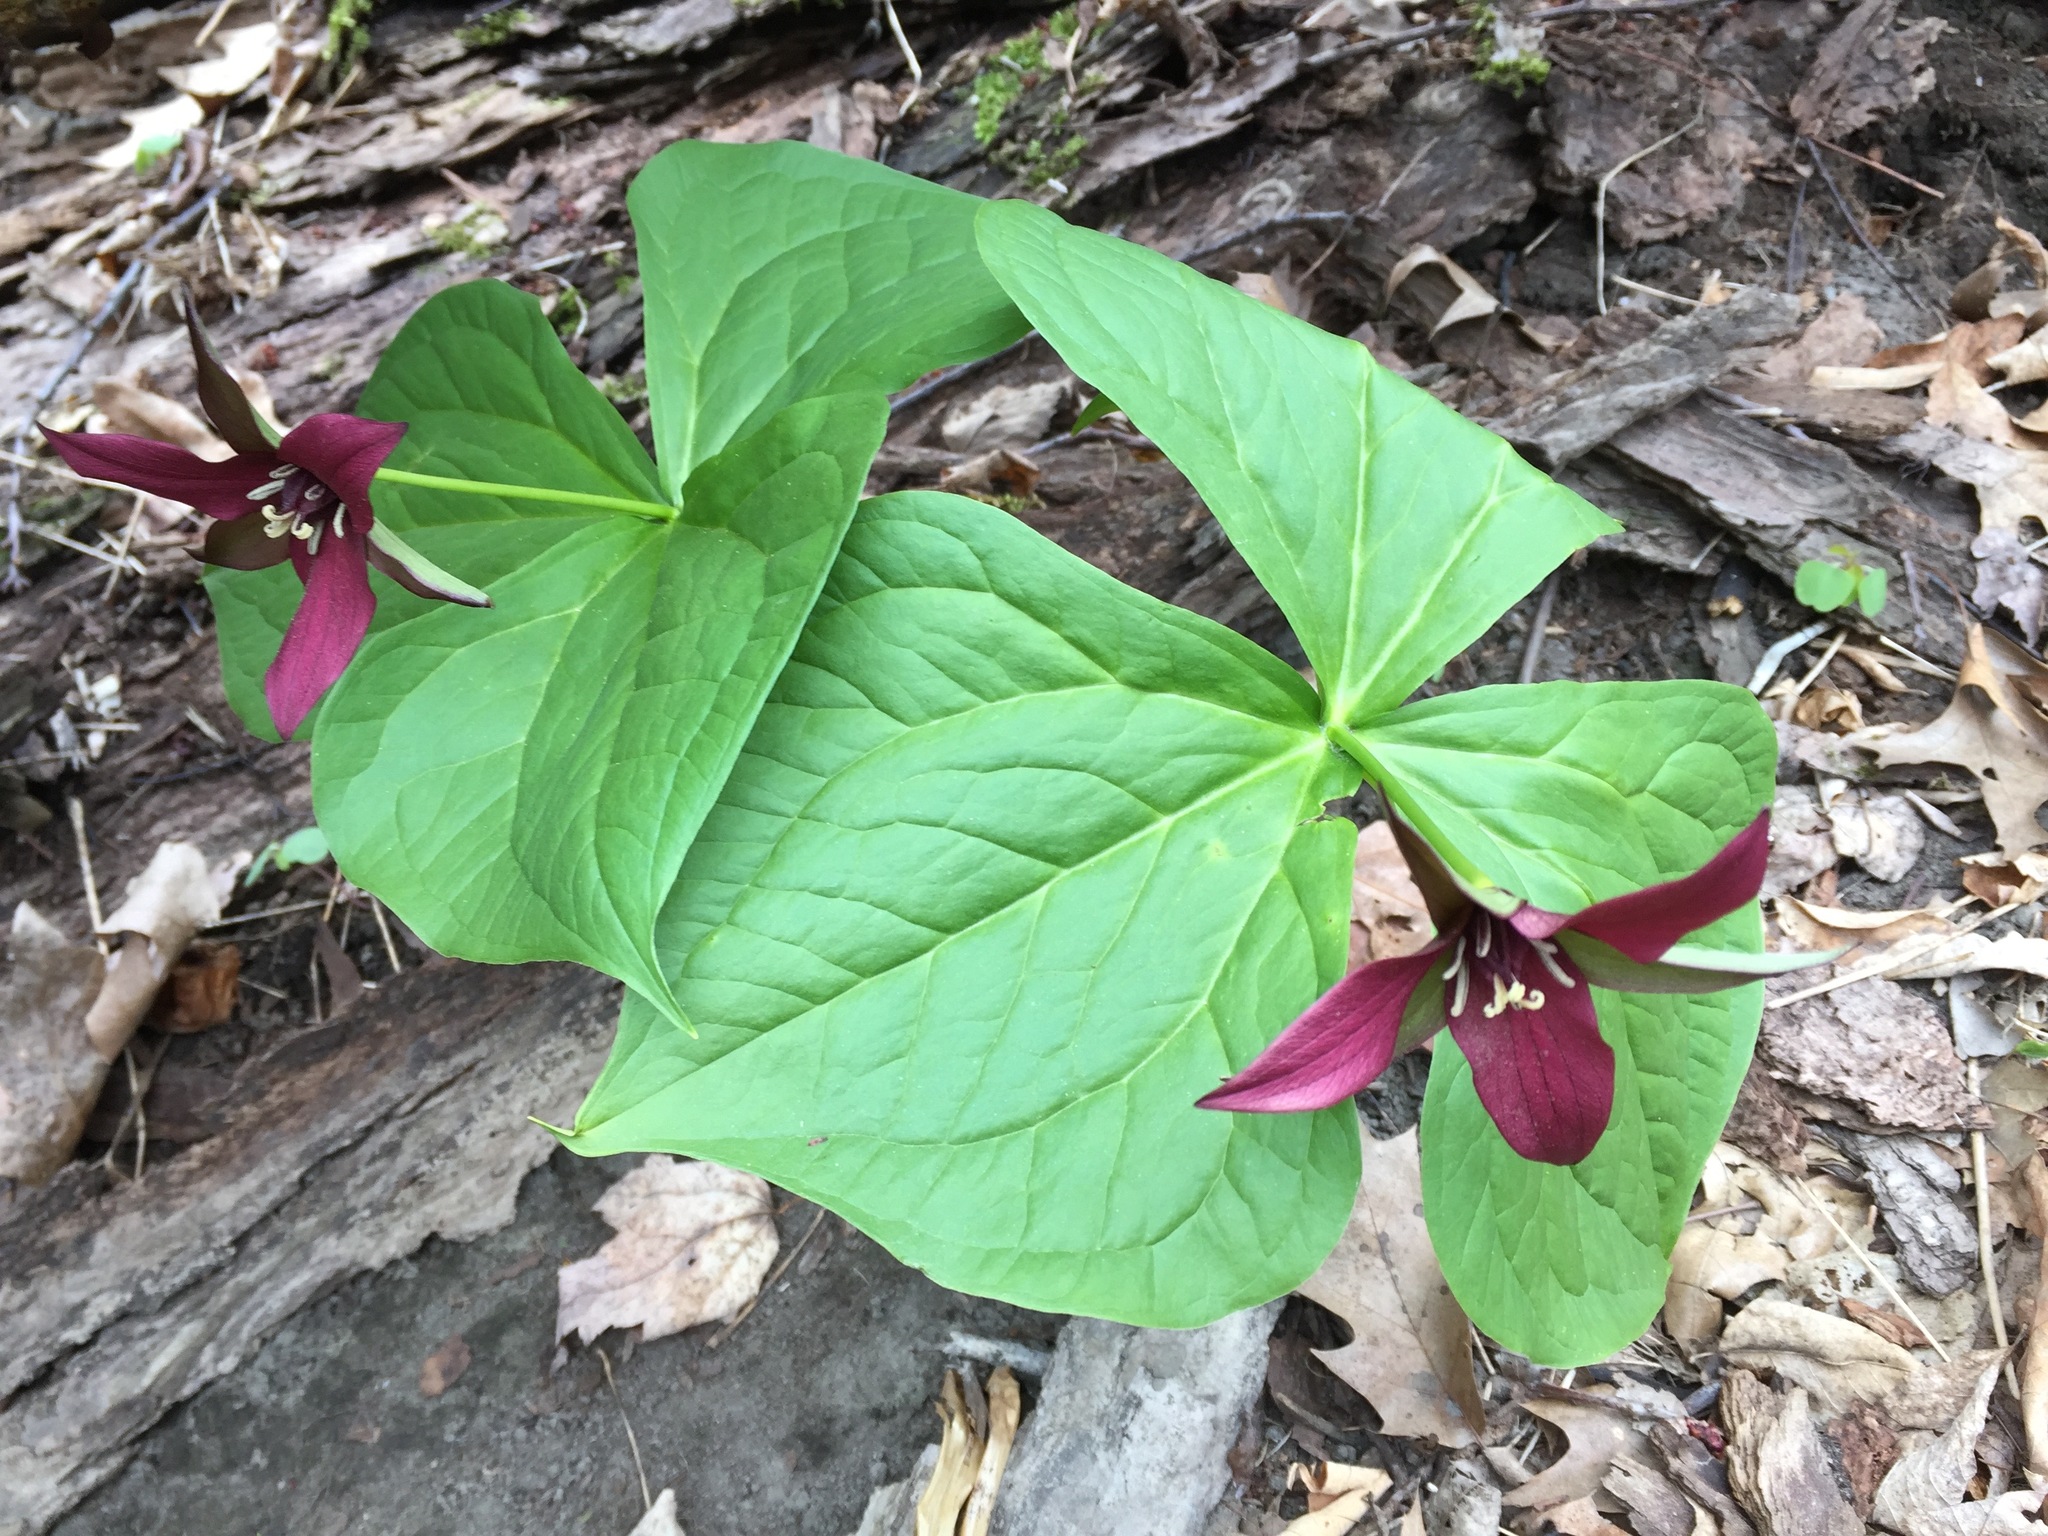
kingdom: Plantae
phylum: Tracheophyta
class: Liliopsida
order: Liliales
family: Melanthiaceae
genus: Trillium
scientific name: Trillium erectum
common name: Purple trillium
